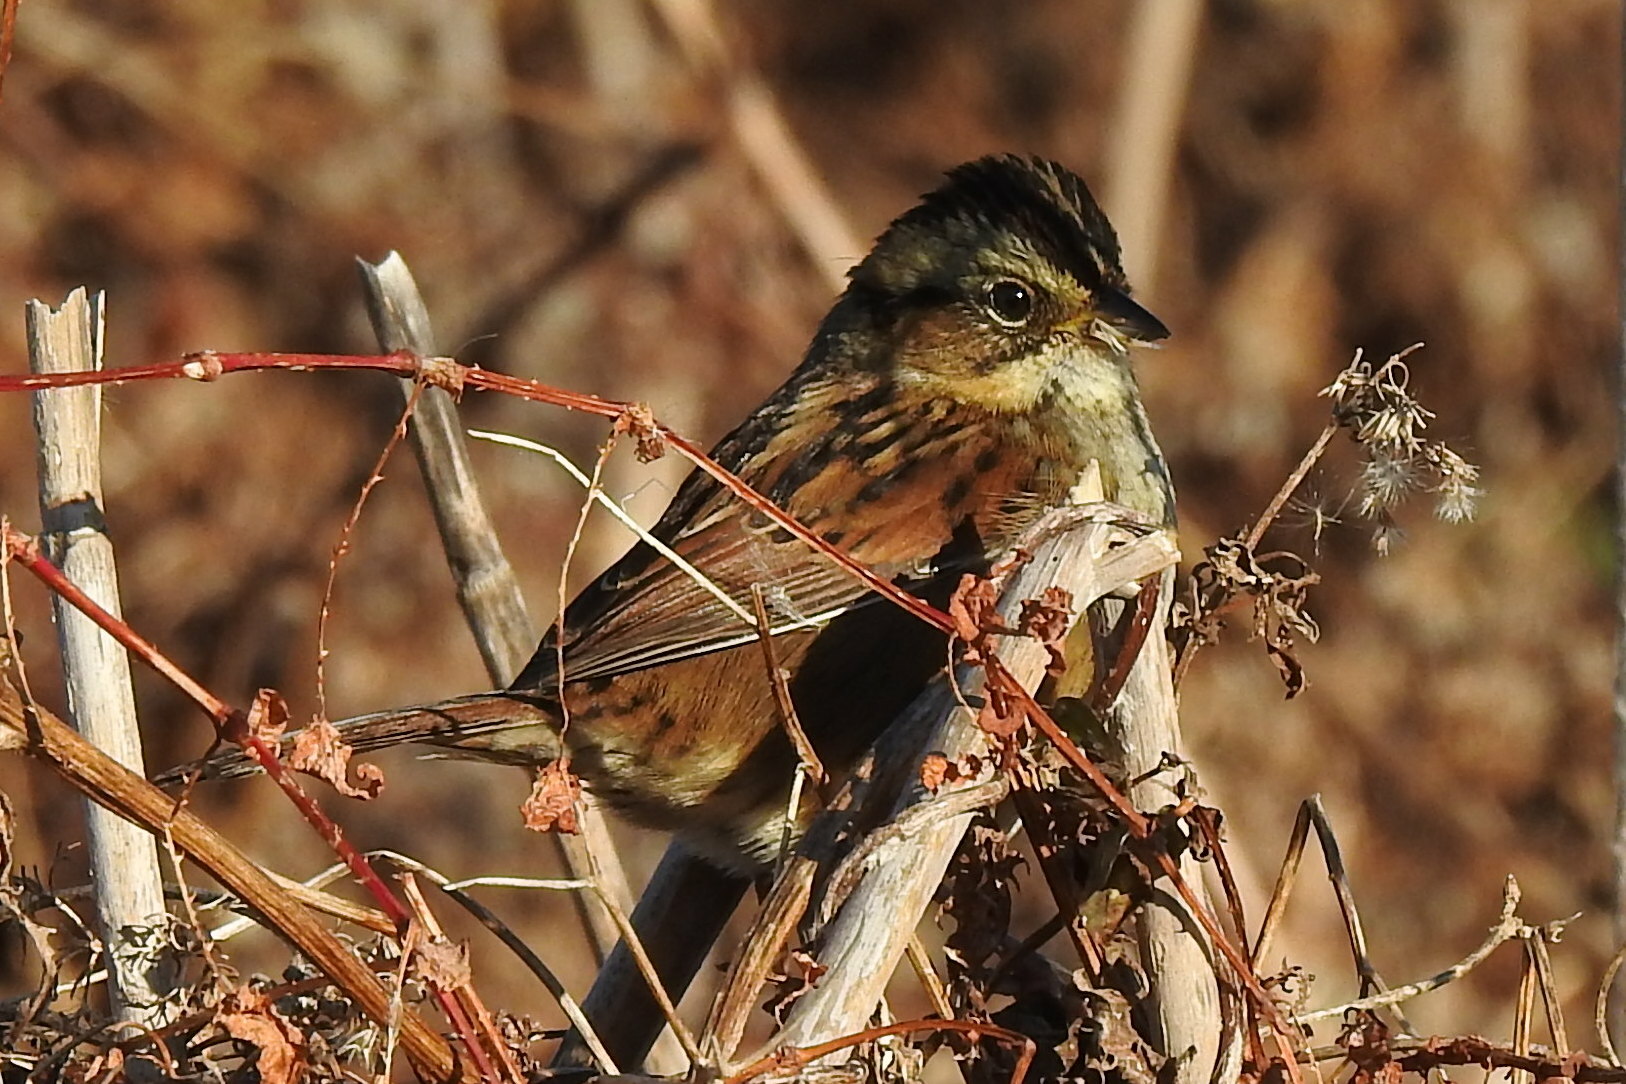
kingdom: Animalia
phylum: Chordata
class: Aves
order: Passeriformes
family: Passerellidae
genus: Melospiza
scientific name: Melospiza georgiana
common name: Swamp sparrow
